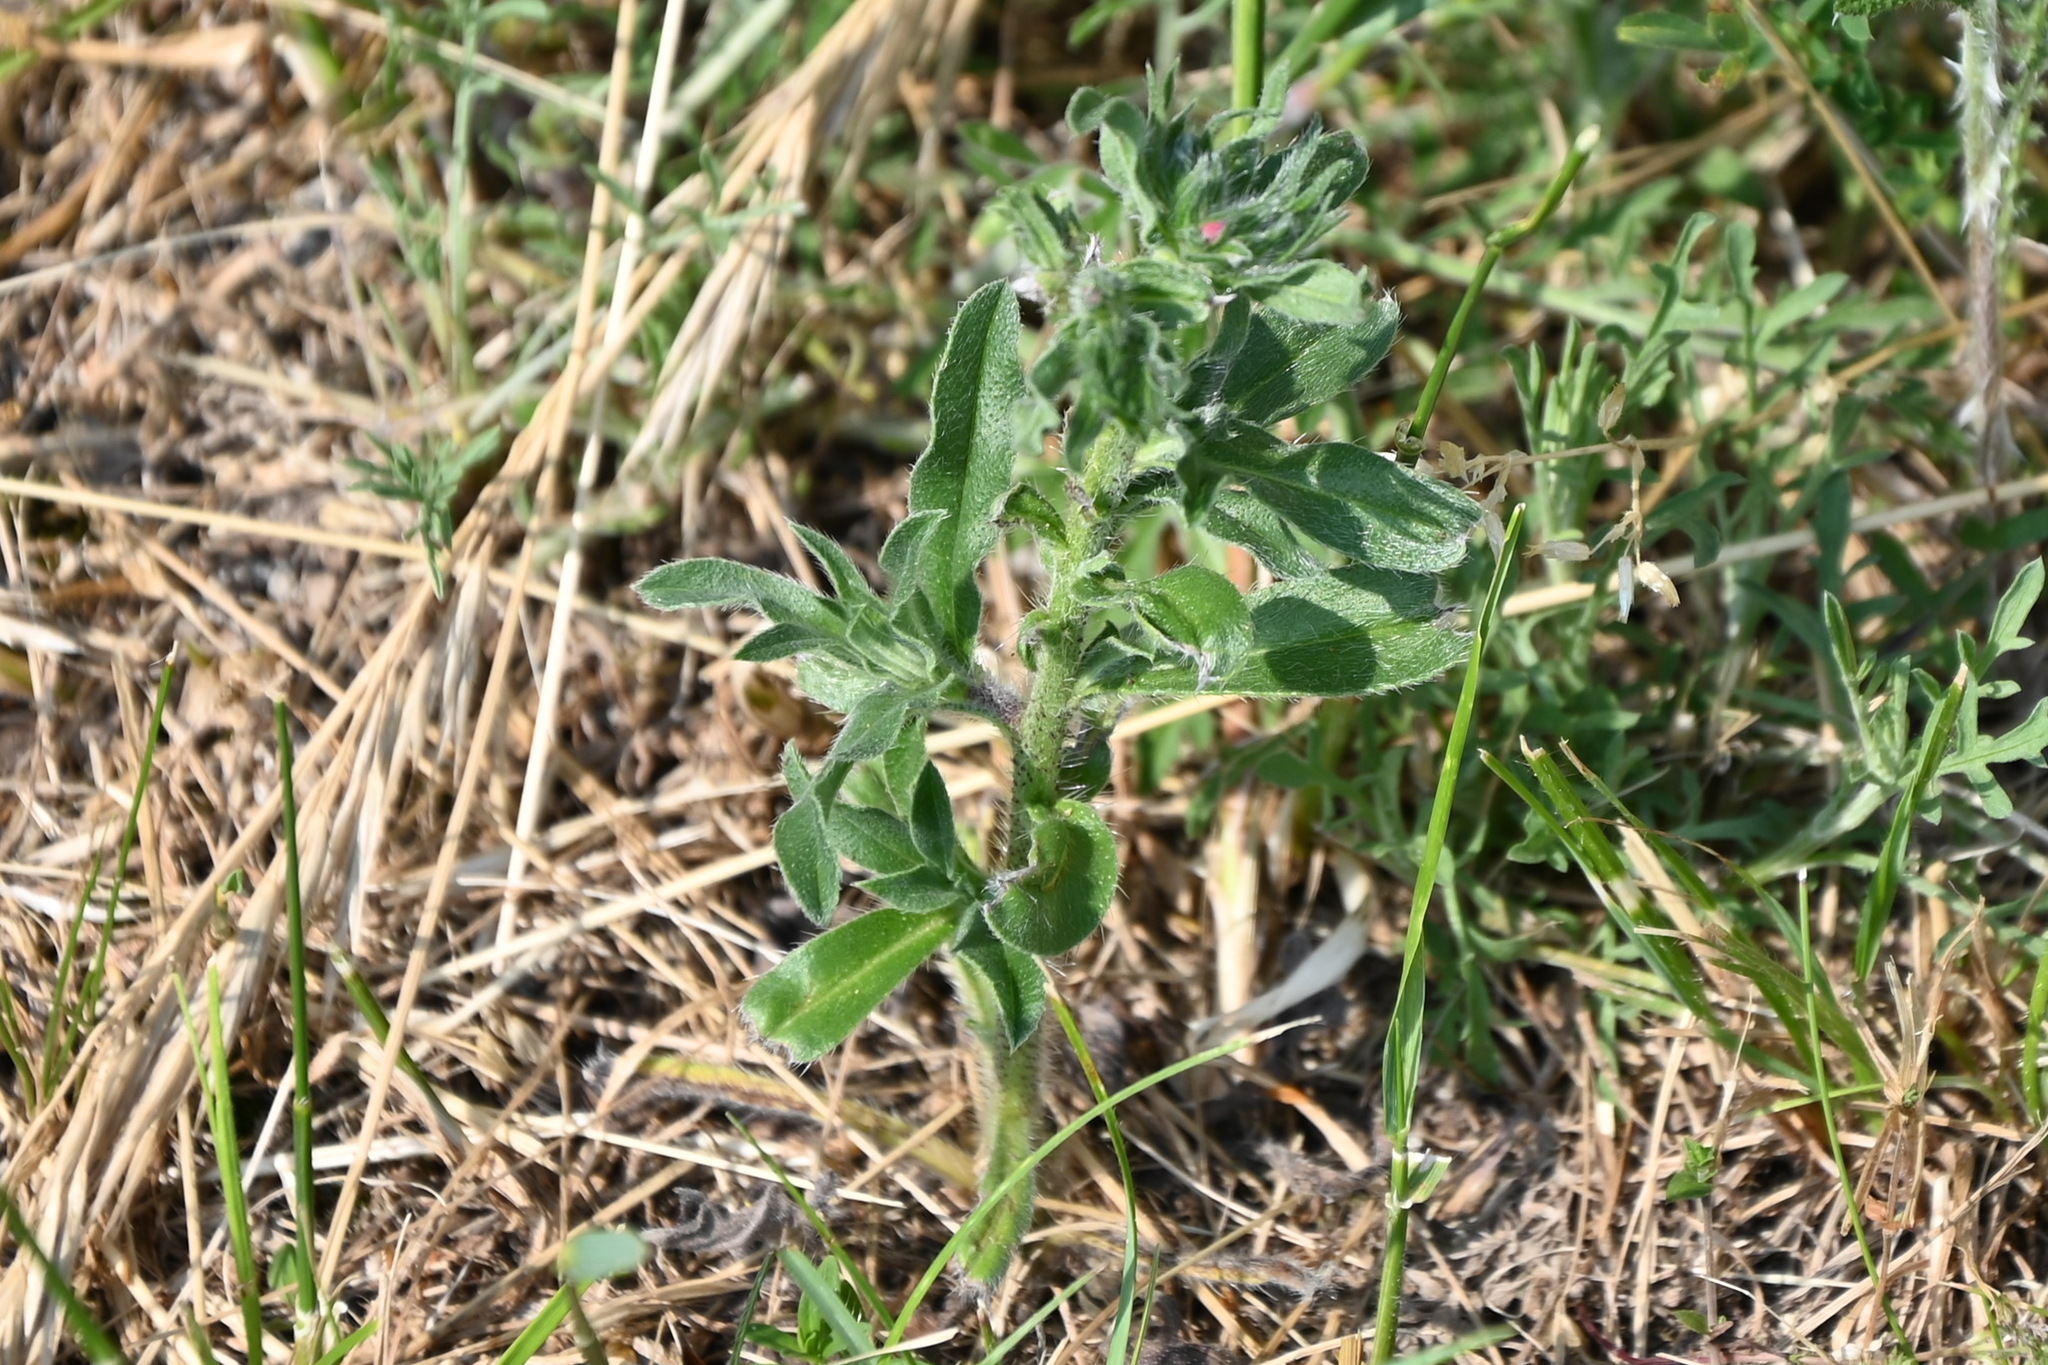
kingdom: Plantae
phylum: Tracheophyta
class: Magnoliopsida
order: Boraginales
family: Boraginaceae
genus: Echium
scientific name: Echium vulgare
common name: Common viper's bugloss
